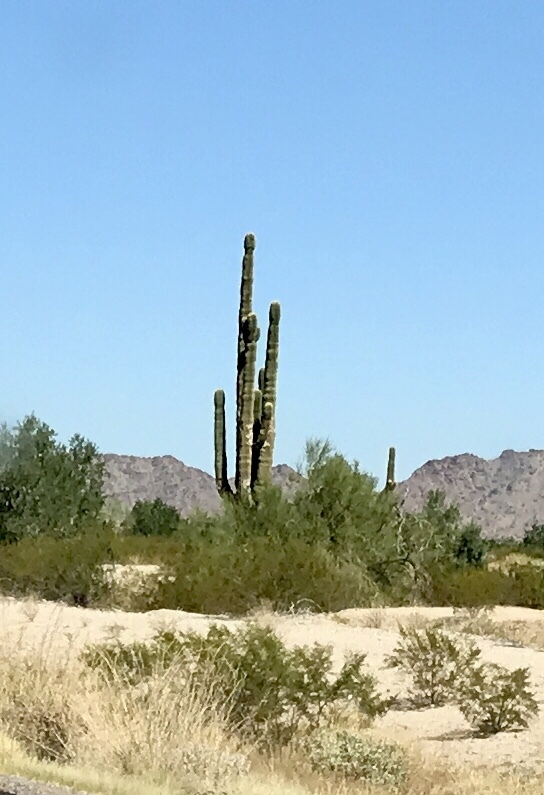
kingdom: Plantae
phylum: Tracheophyta
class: Magnoliopsida
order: Caryophyllales
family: Cactaceae
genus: Carnegiea
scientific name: Carnegiea gigantea
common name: Saguaro
